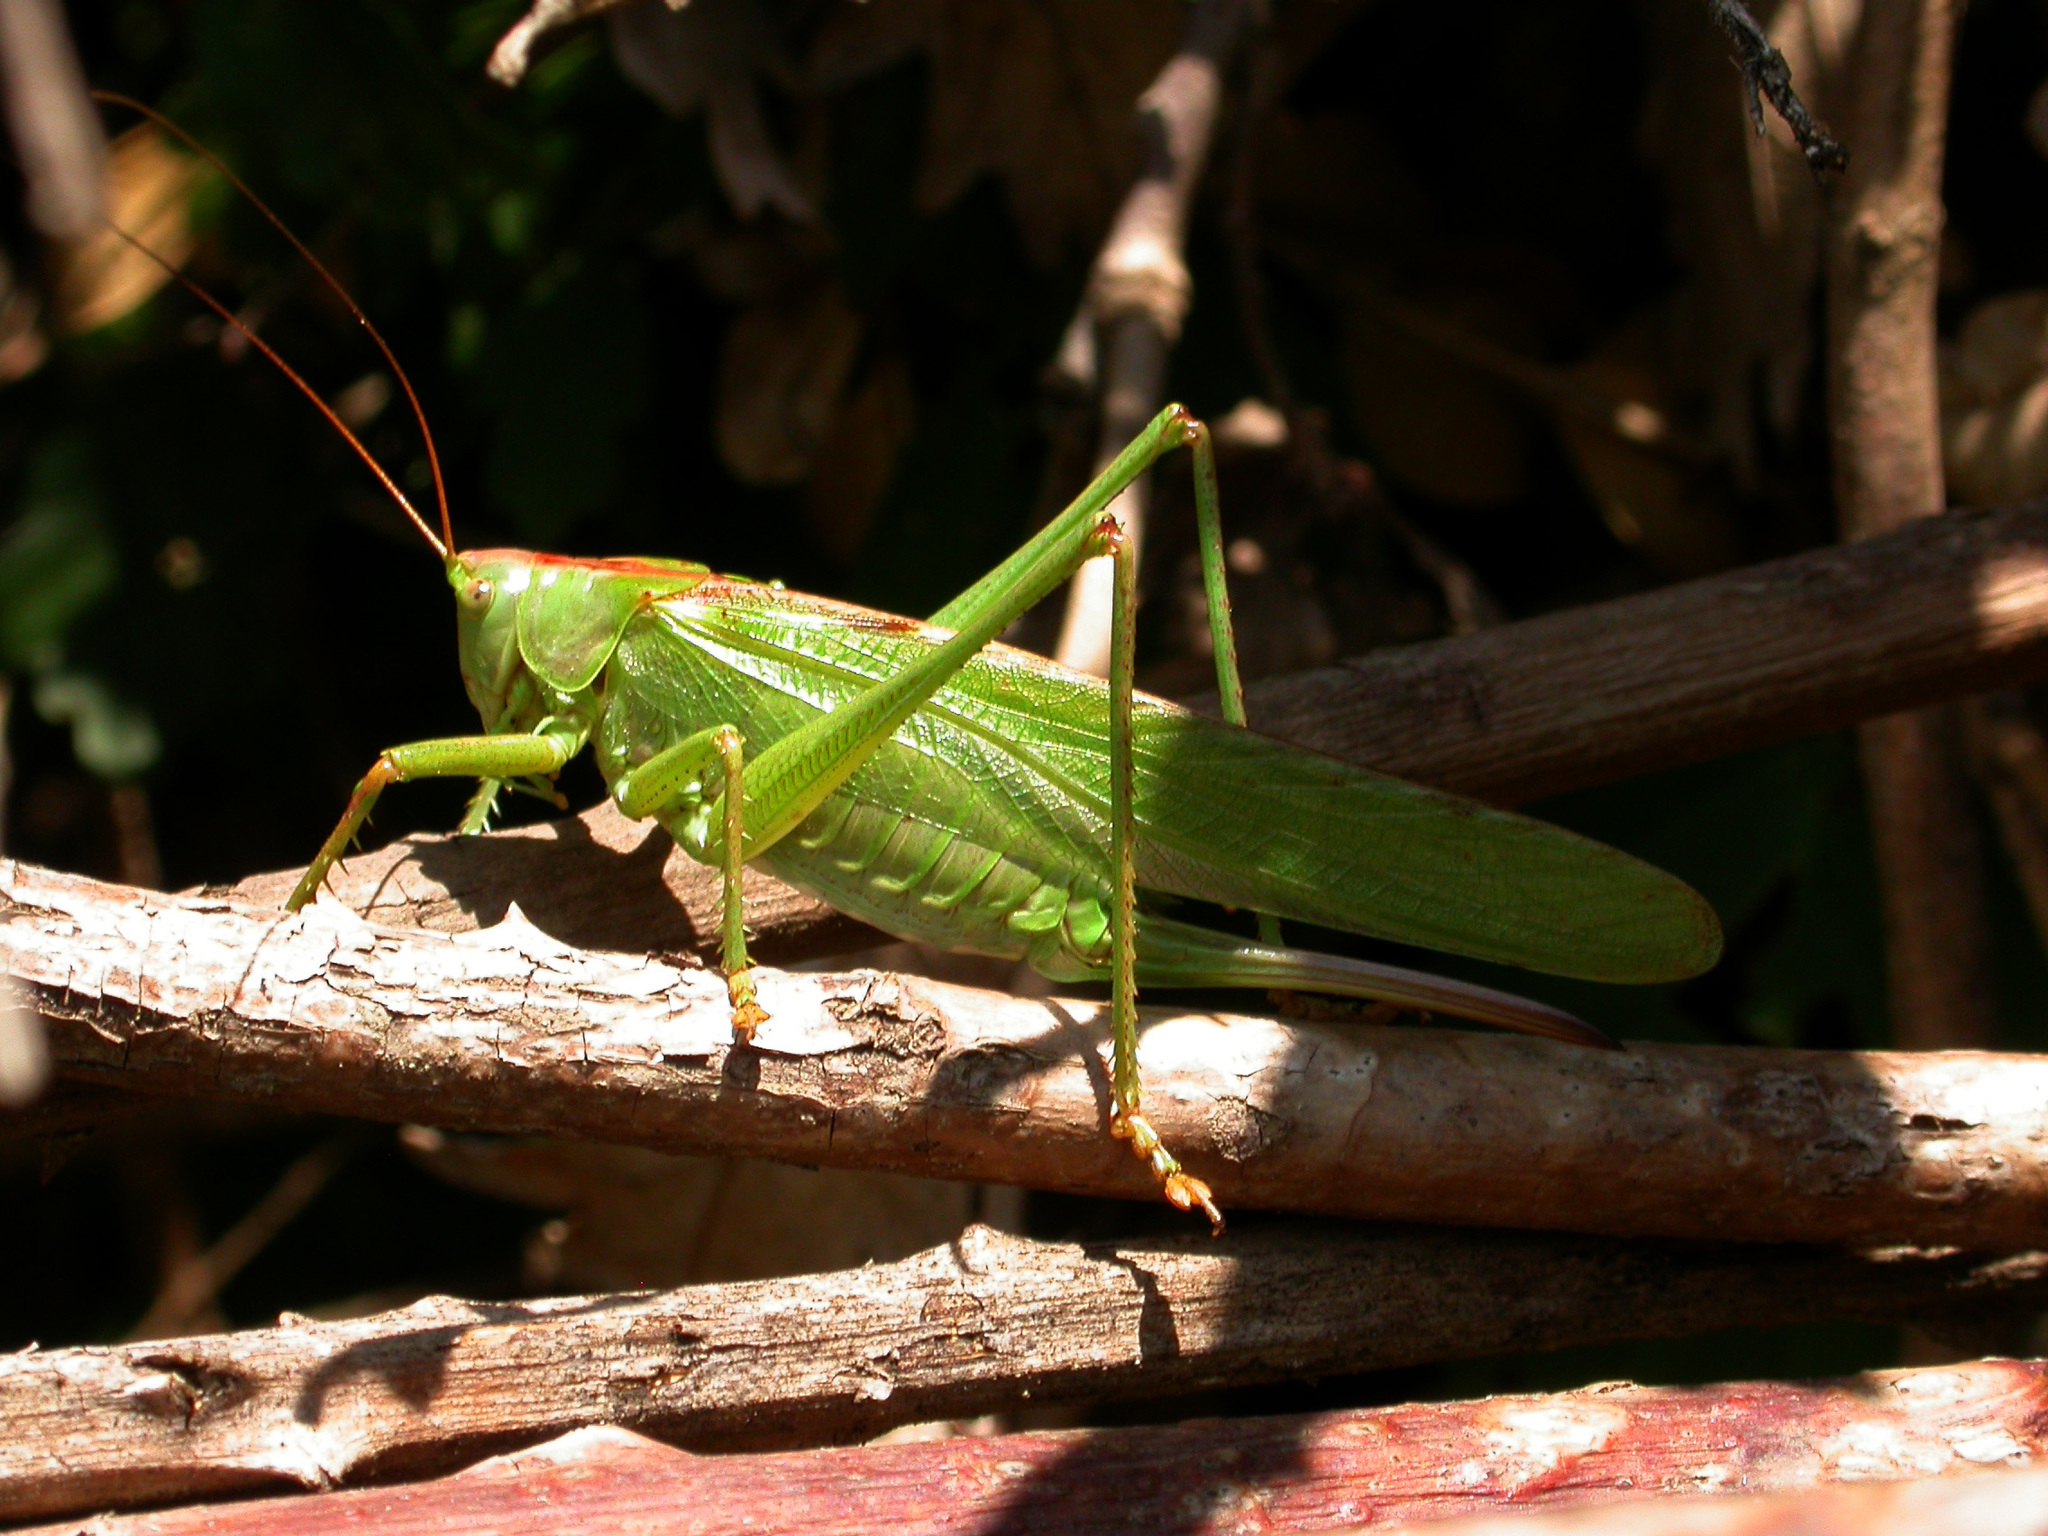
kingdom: Animalia
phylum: Arthropoda
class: Insecta
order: Orthoptera
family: Tettigoniidae
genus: Tettigonia
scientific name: Tettigonia viridissima
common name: Great green bush-cricket
